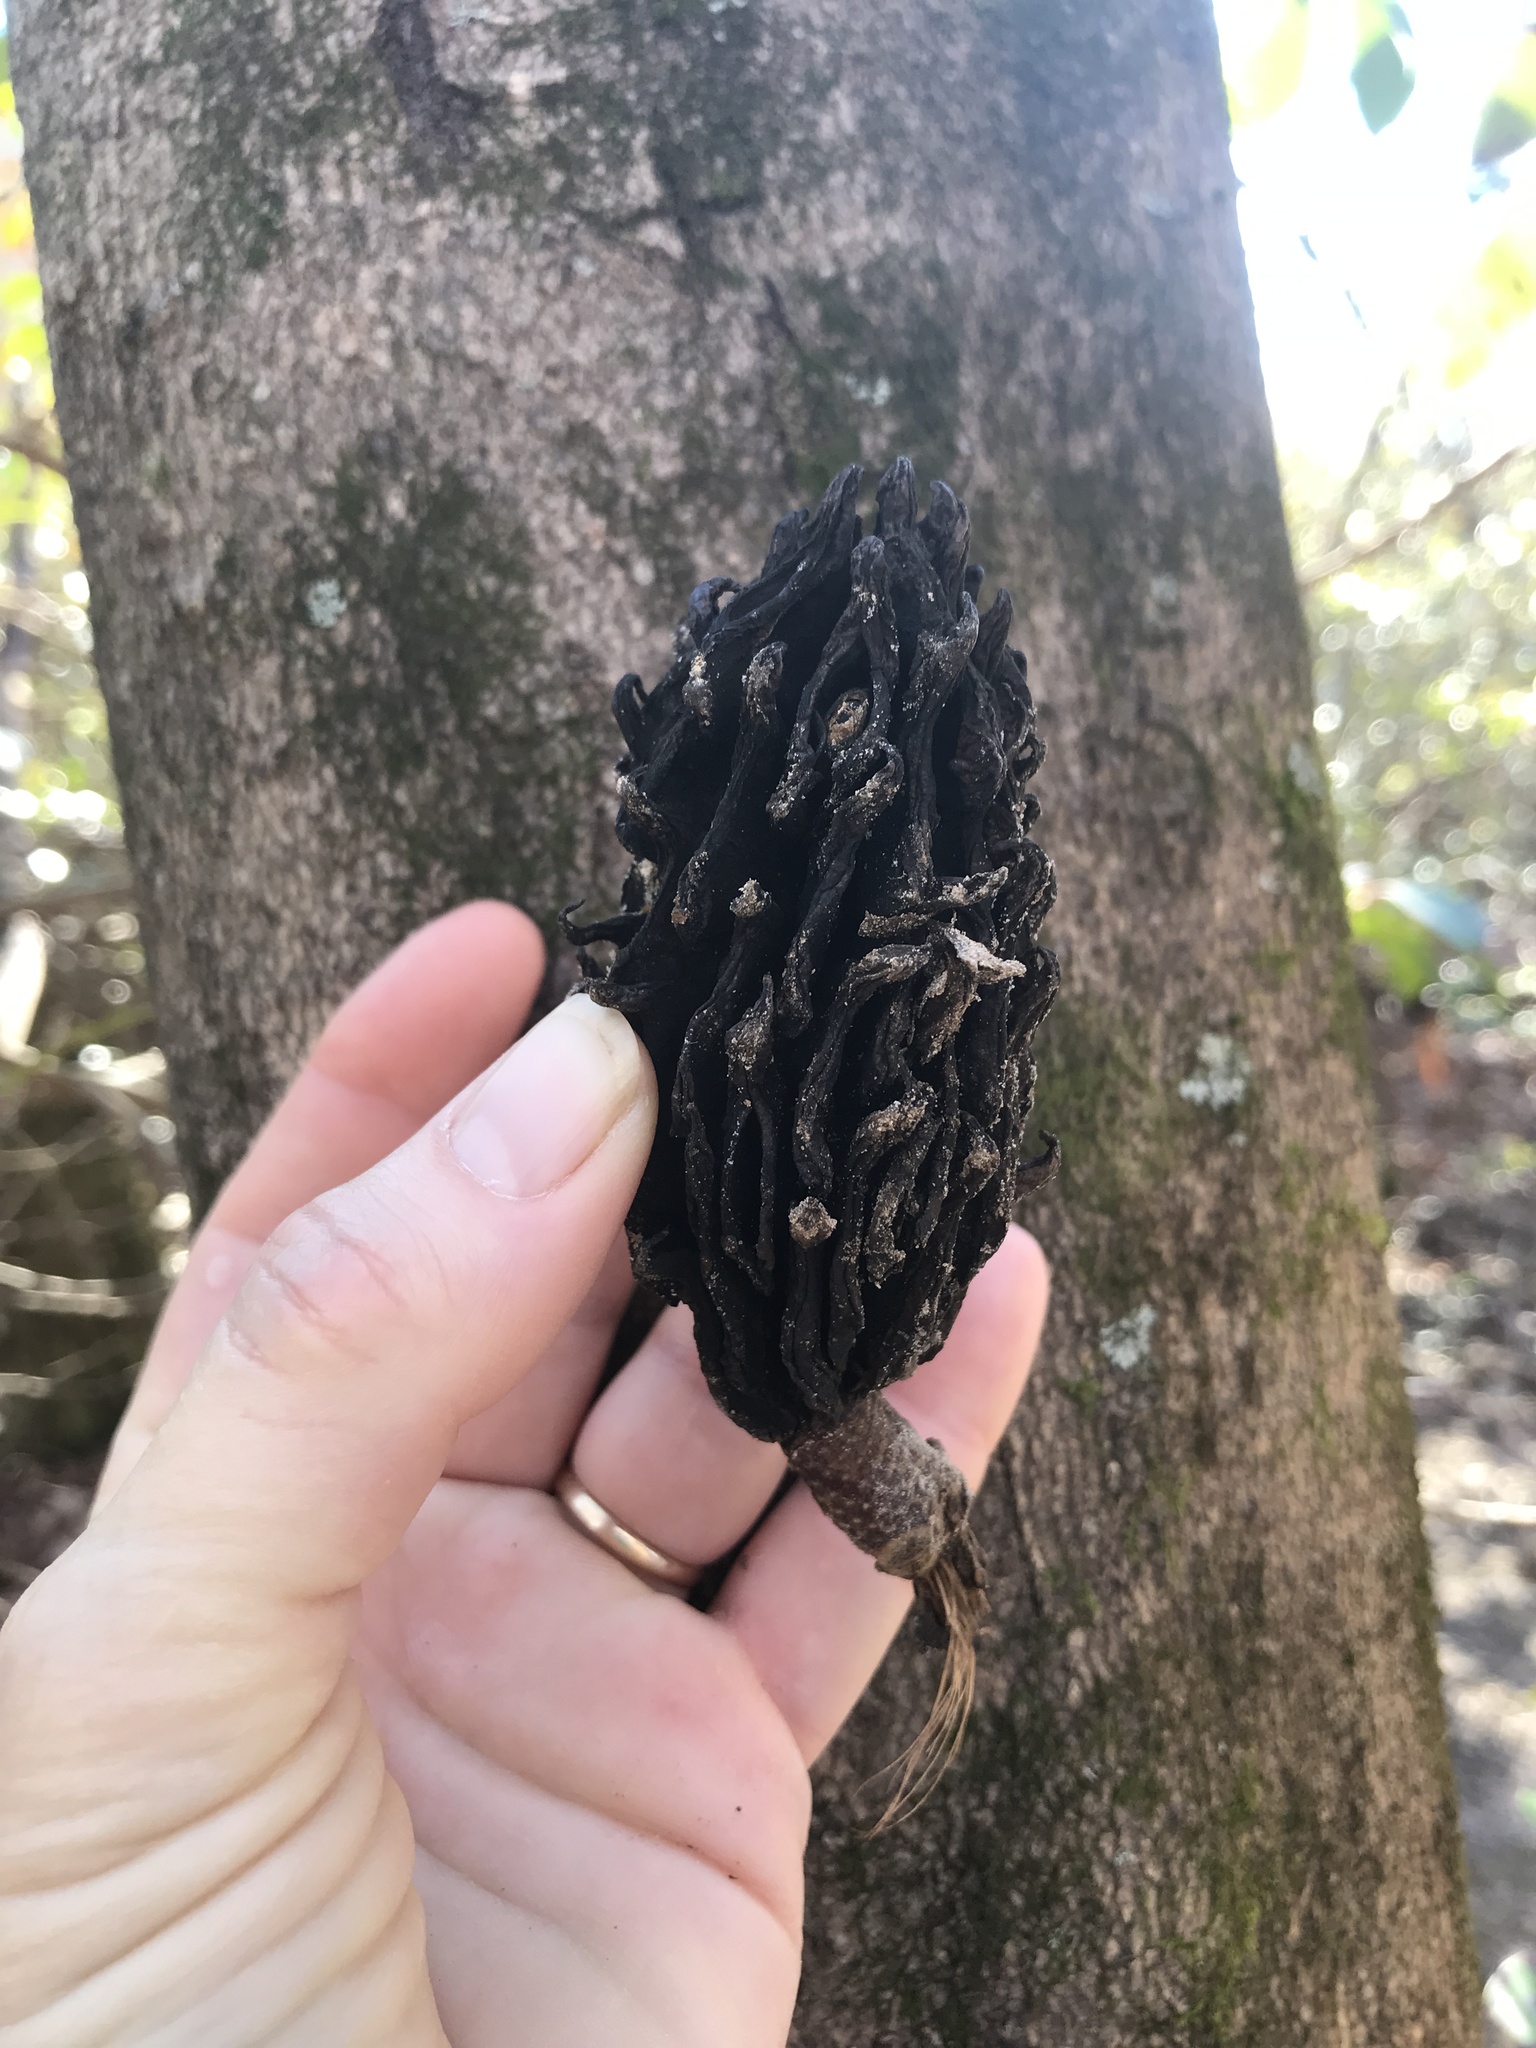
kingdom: Plantae
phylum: Tracheophyta
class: Magnoliopsida
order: Magnoliales
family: Magnoliaceae
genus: Magnolia
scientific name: Magnolia tripetala
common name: Umbrella magnolia
